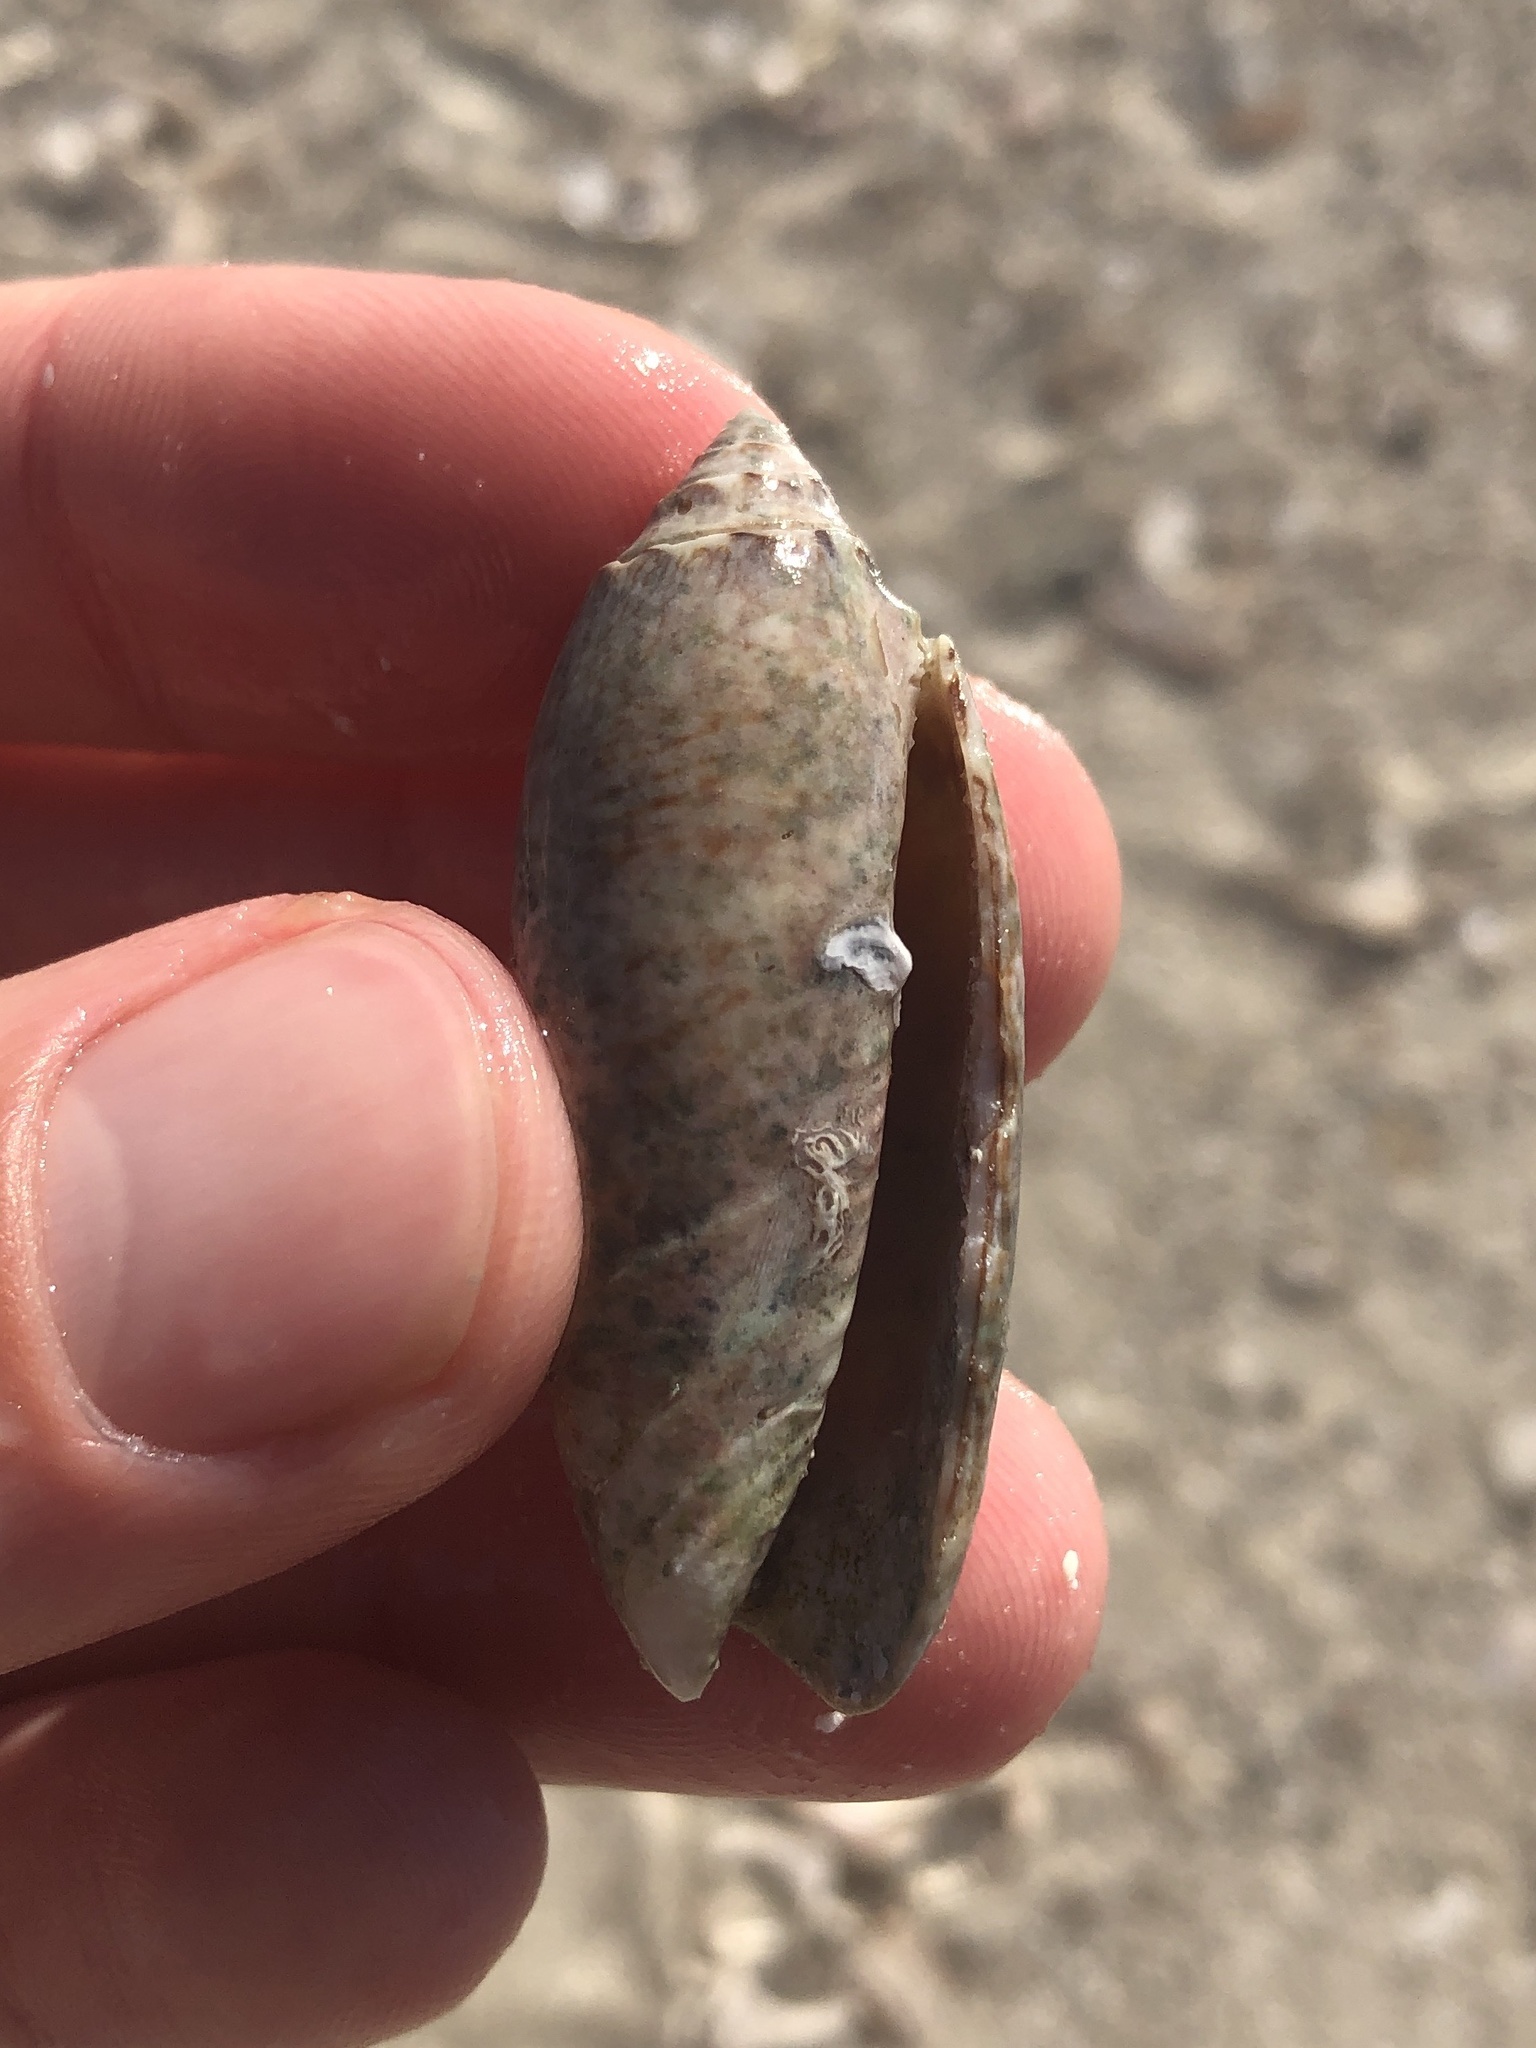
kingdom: Animalia
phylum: Mollusca
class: Gastropoda
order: Neogastropoda
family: Olividae
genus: Oliva
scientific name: Oliva sayana
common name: Lettered olive
